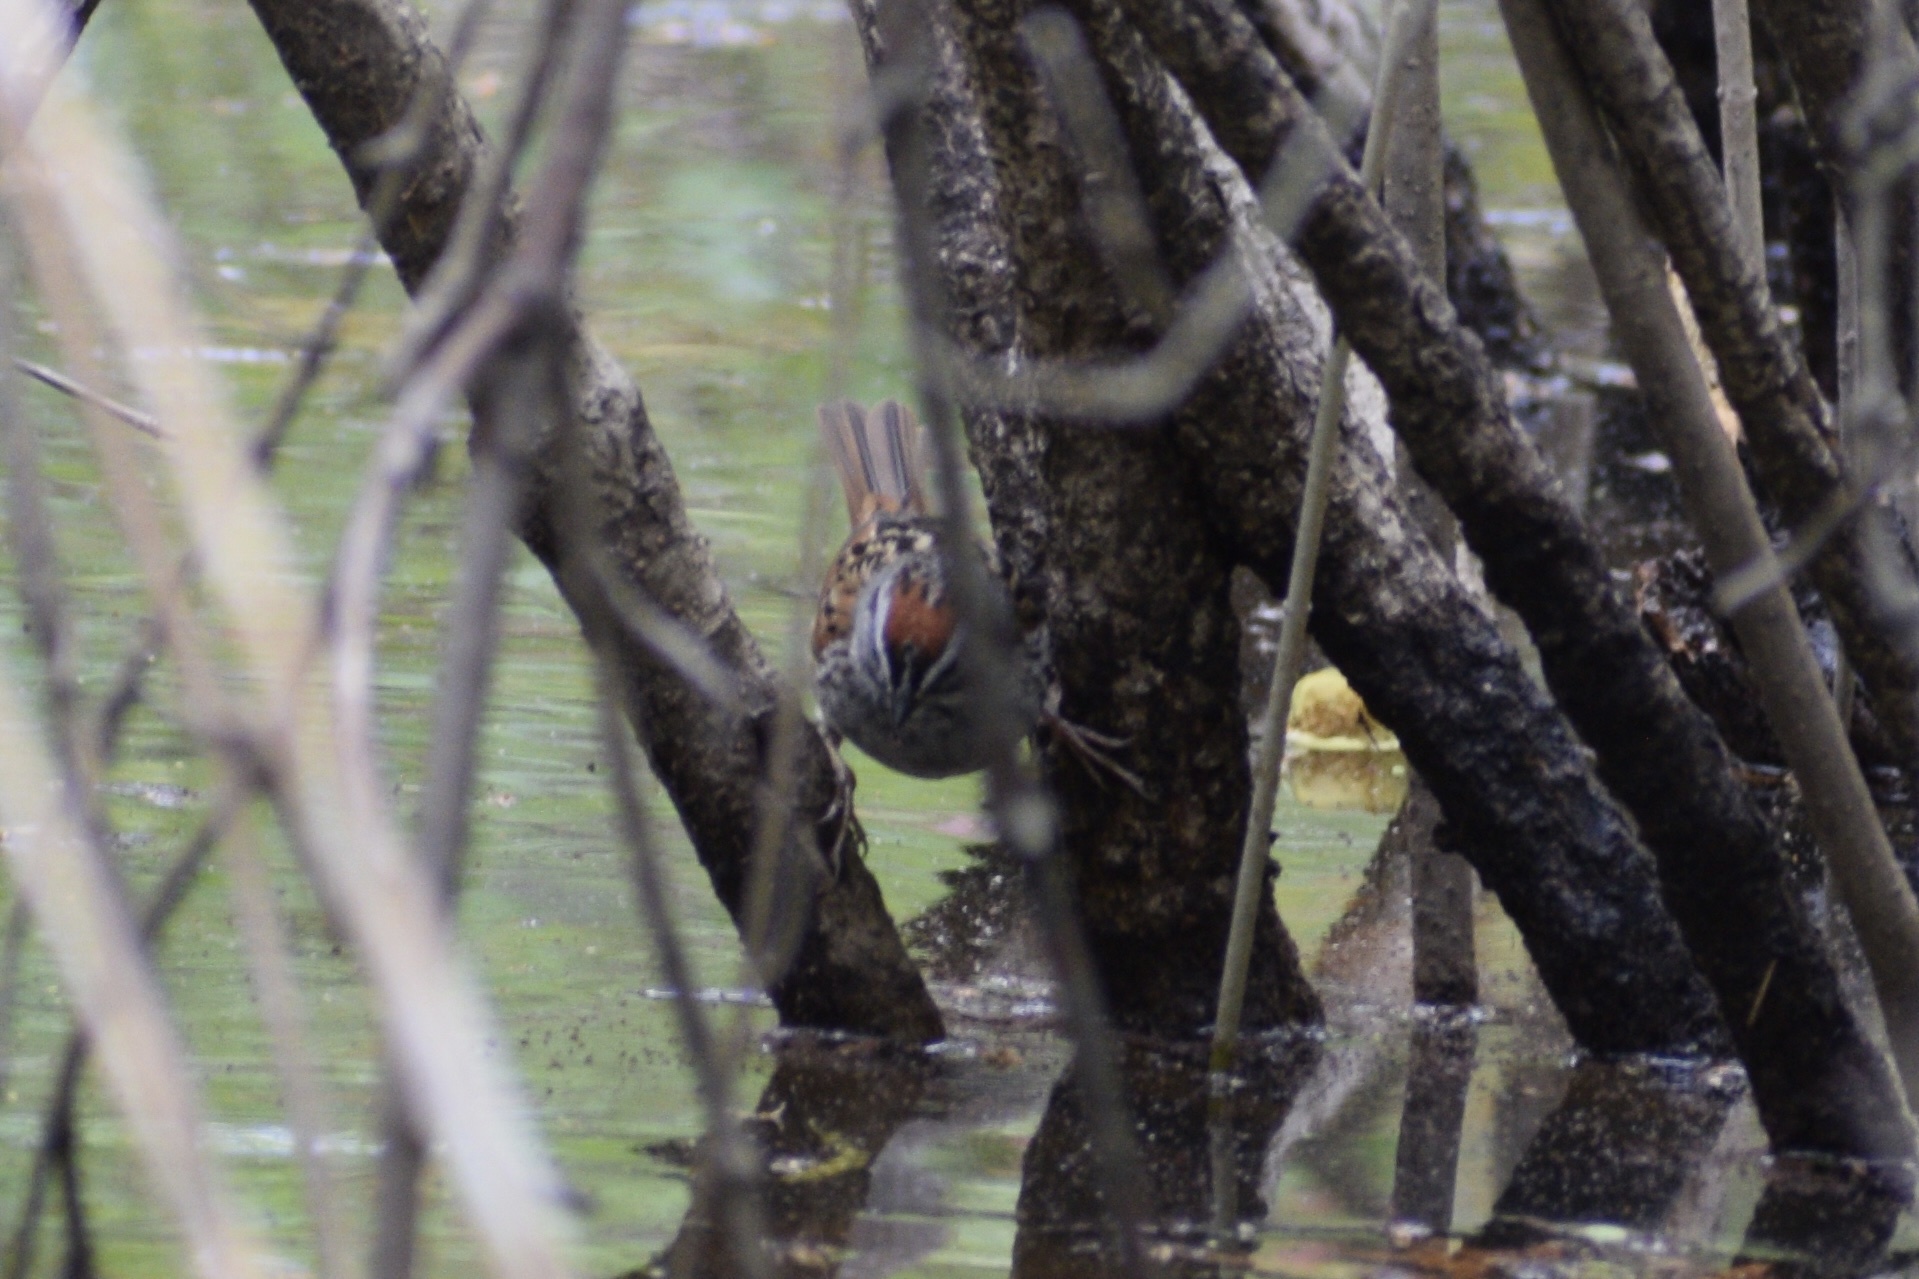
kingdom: Animalia
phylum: Chordata
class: Aves
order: Passeriformes
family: Passerellidae
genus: Melospiza
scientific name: Melospiza georgiana
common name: Swamp sparrow
